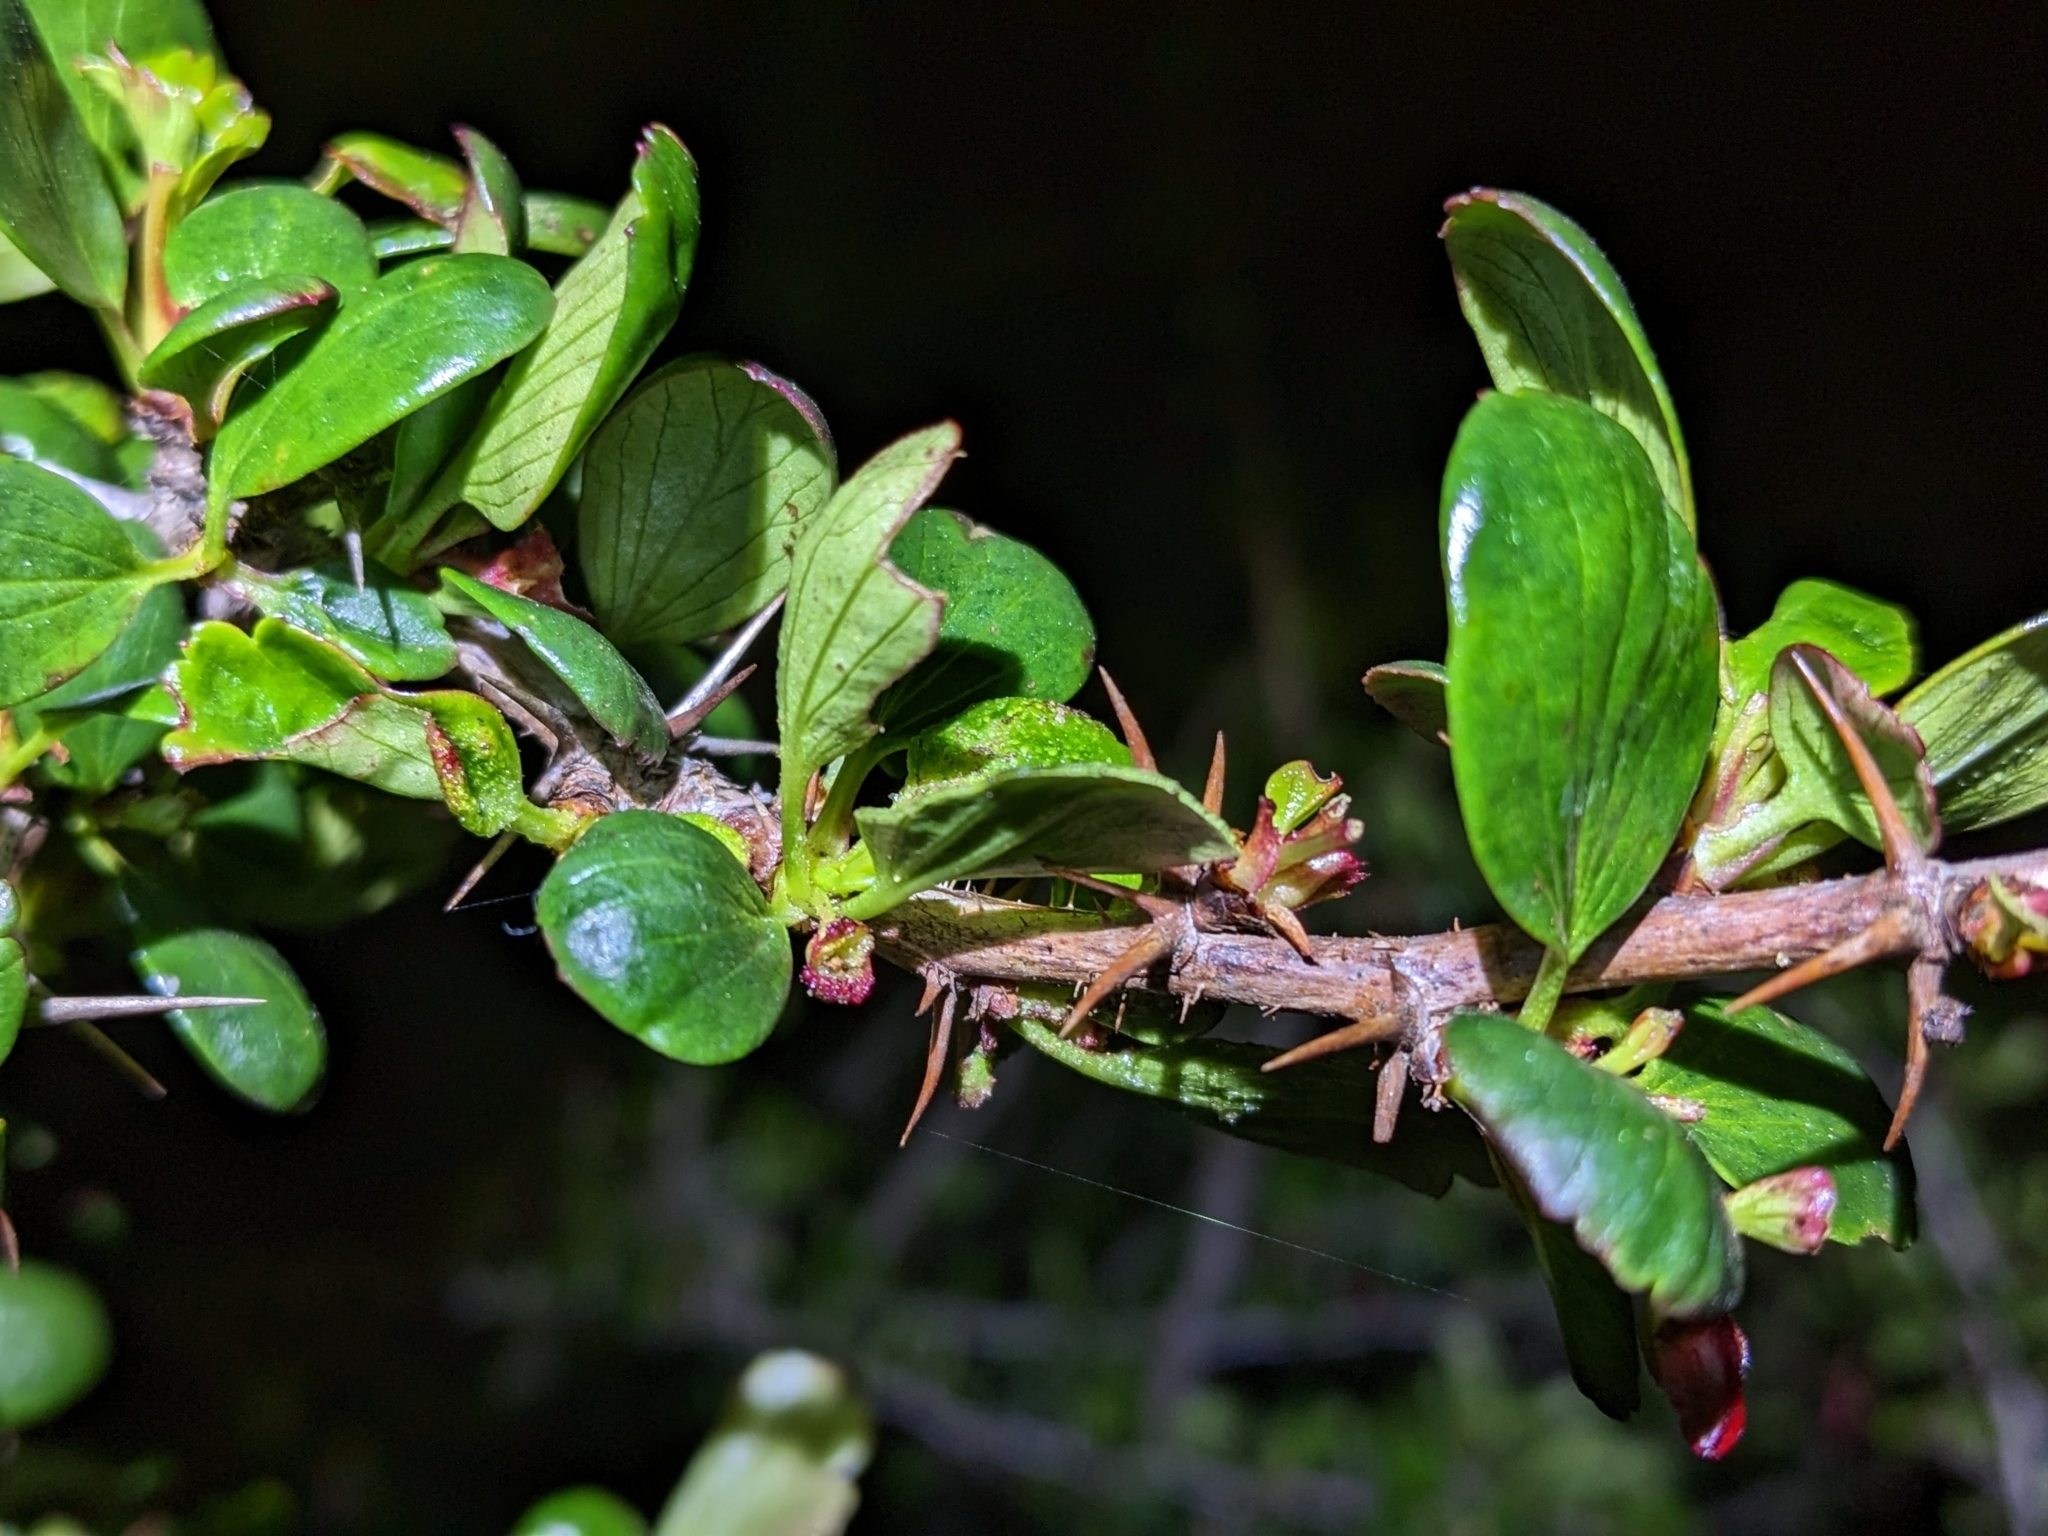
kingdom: Plantae
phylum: Tracheophyta
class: Magnoliopsida
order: Saxifragales
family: Grossulariaceae
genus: Ribes
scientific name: Ribes speciosum
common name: Fuchsia-flower gooseberry
